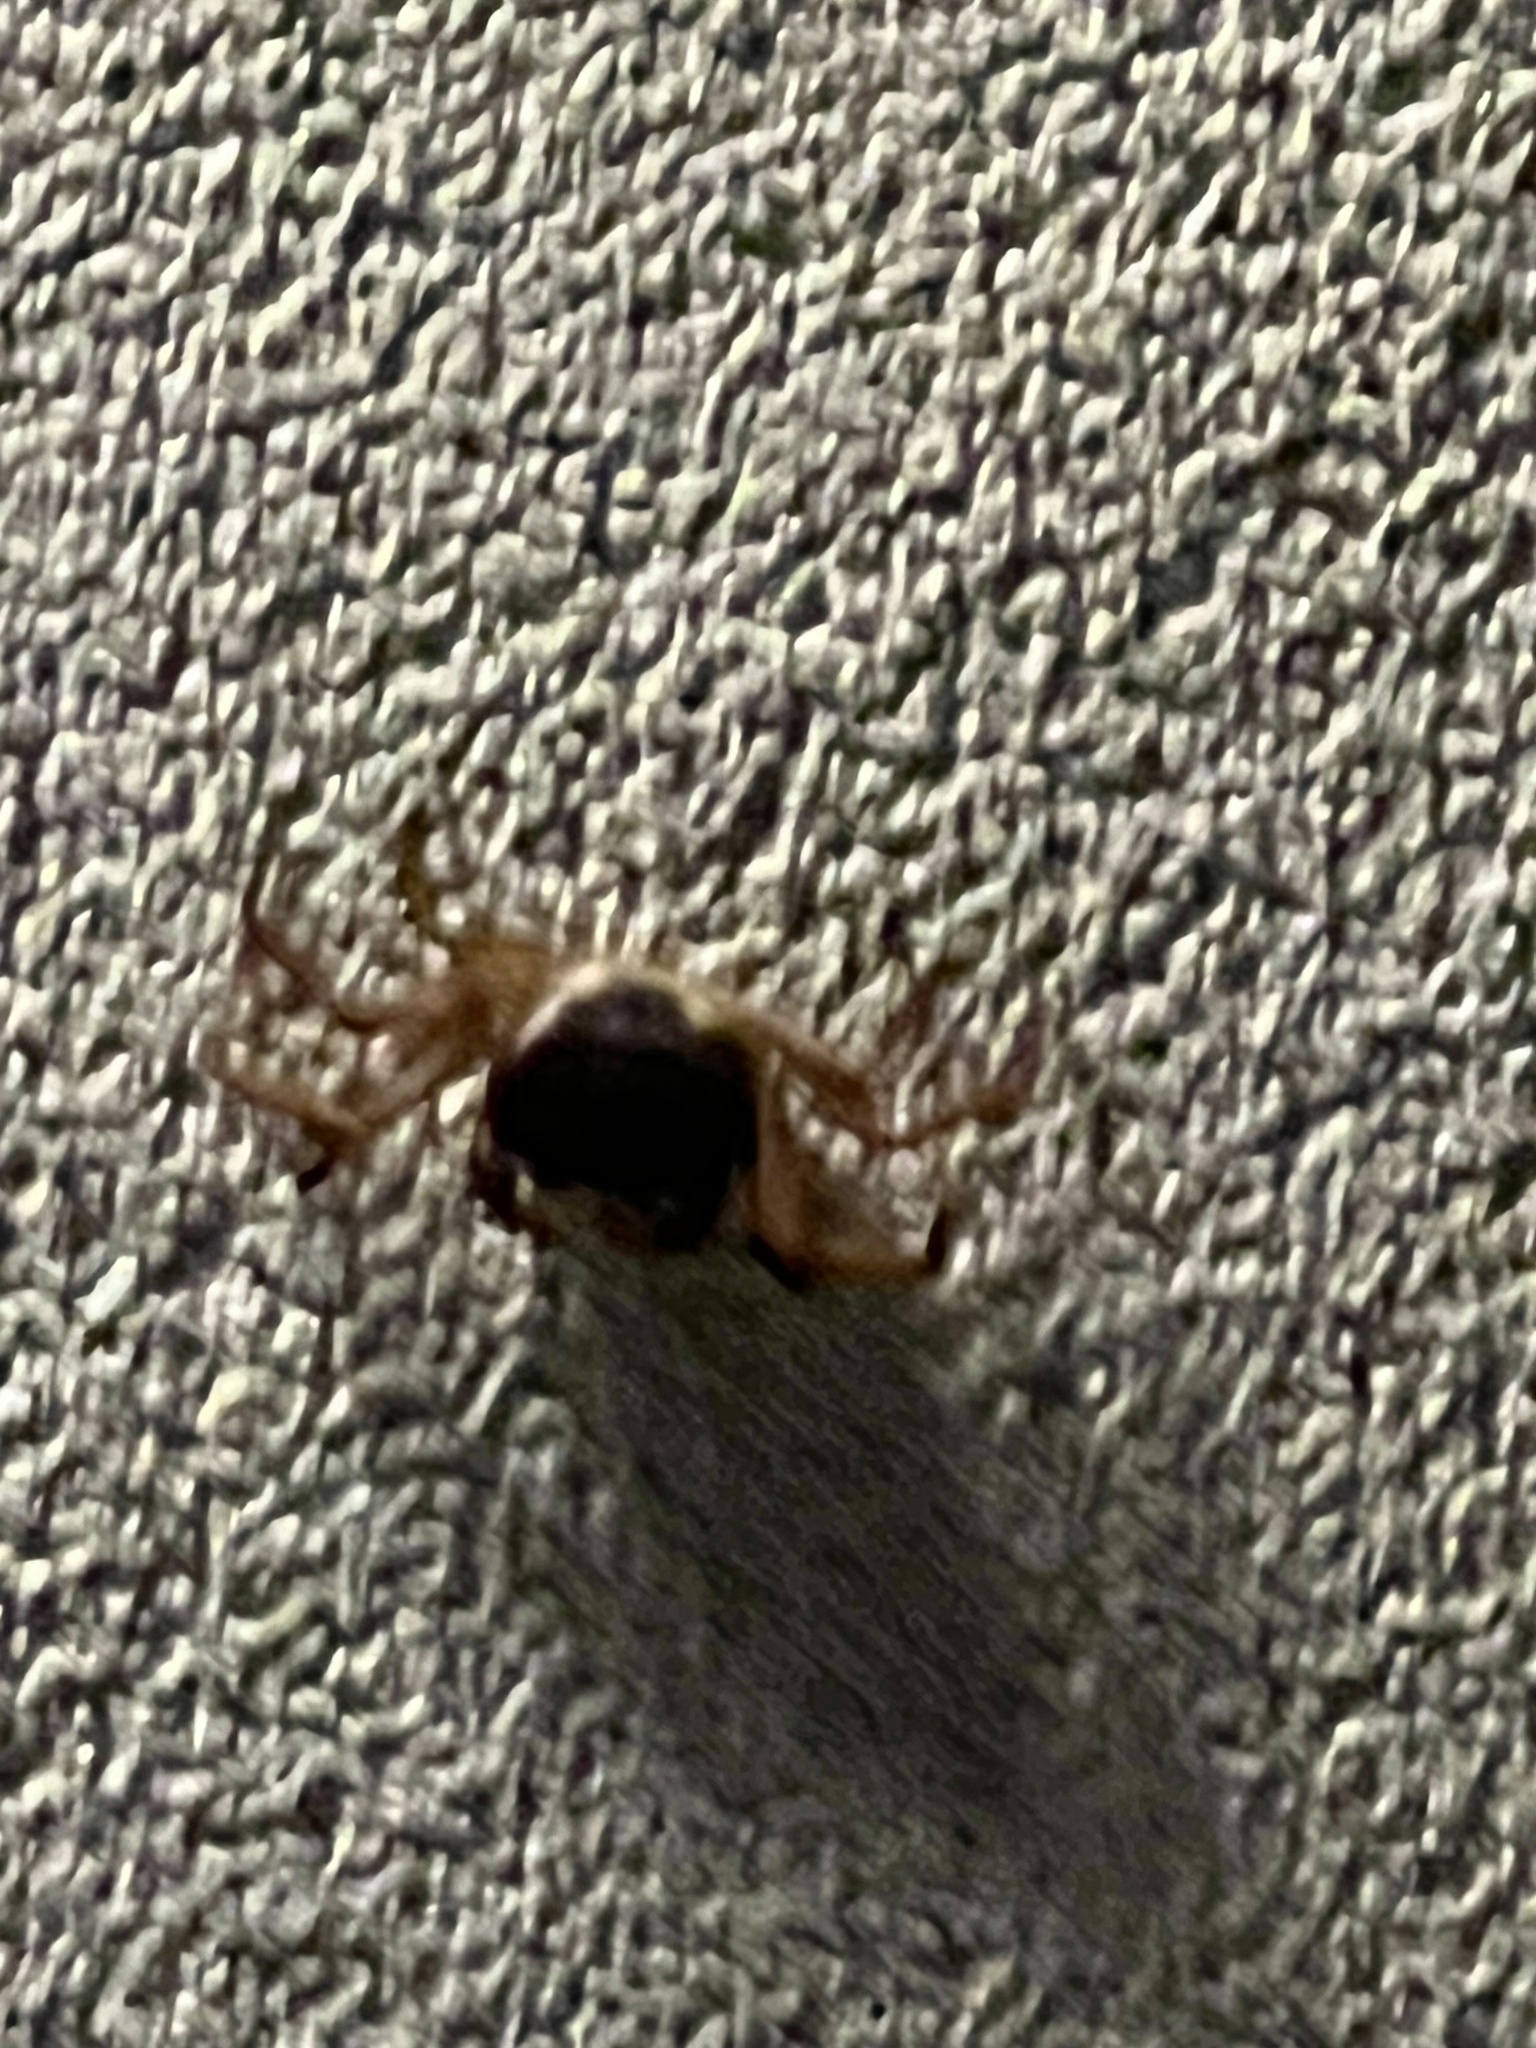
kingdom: Animalia
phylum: Arthropoda
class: Malacostraca
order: Decapoda
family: Gecarcinidae
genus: Gecarcinus
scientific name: Gecarcinus lateralis
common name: Bermuda land crab
